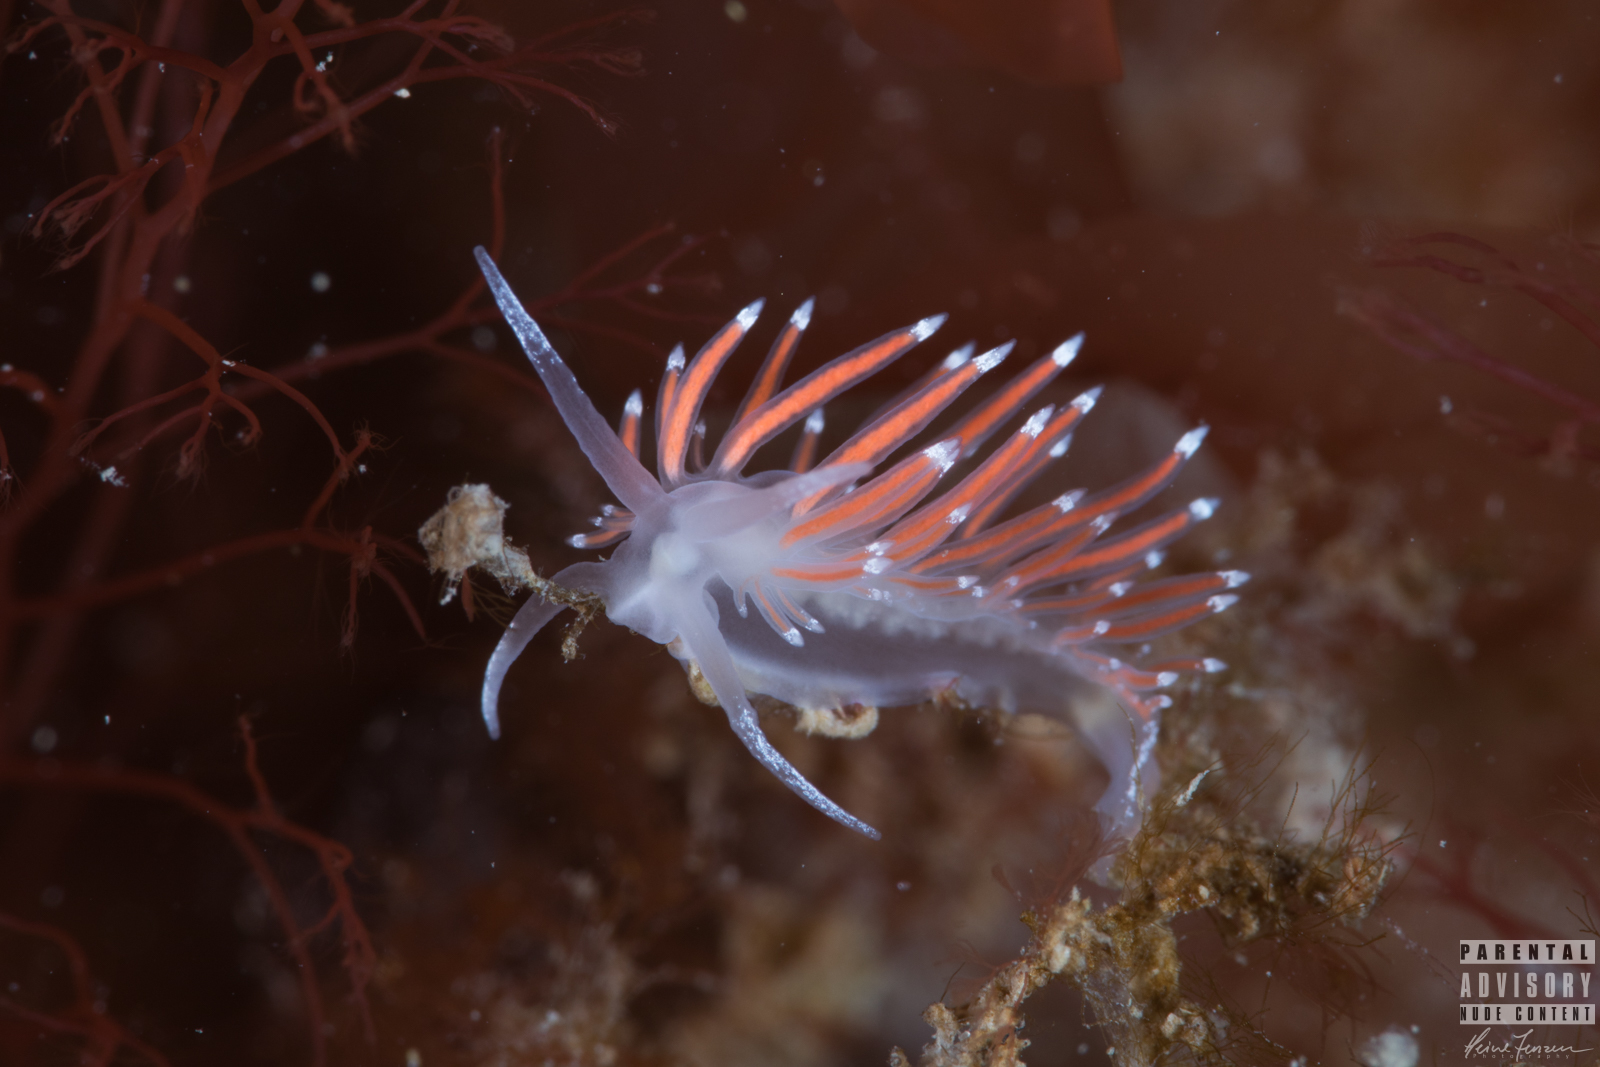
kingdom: Animalia
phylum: Mollusca
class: Gastropoda
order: Nudibranchia
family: Coryphellidae
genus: Coryphella
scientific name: Coryphella gracilis
